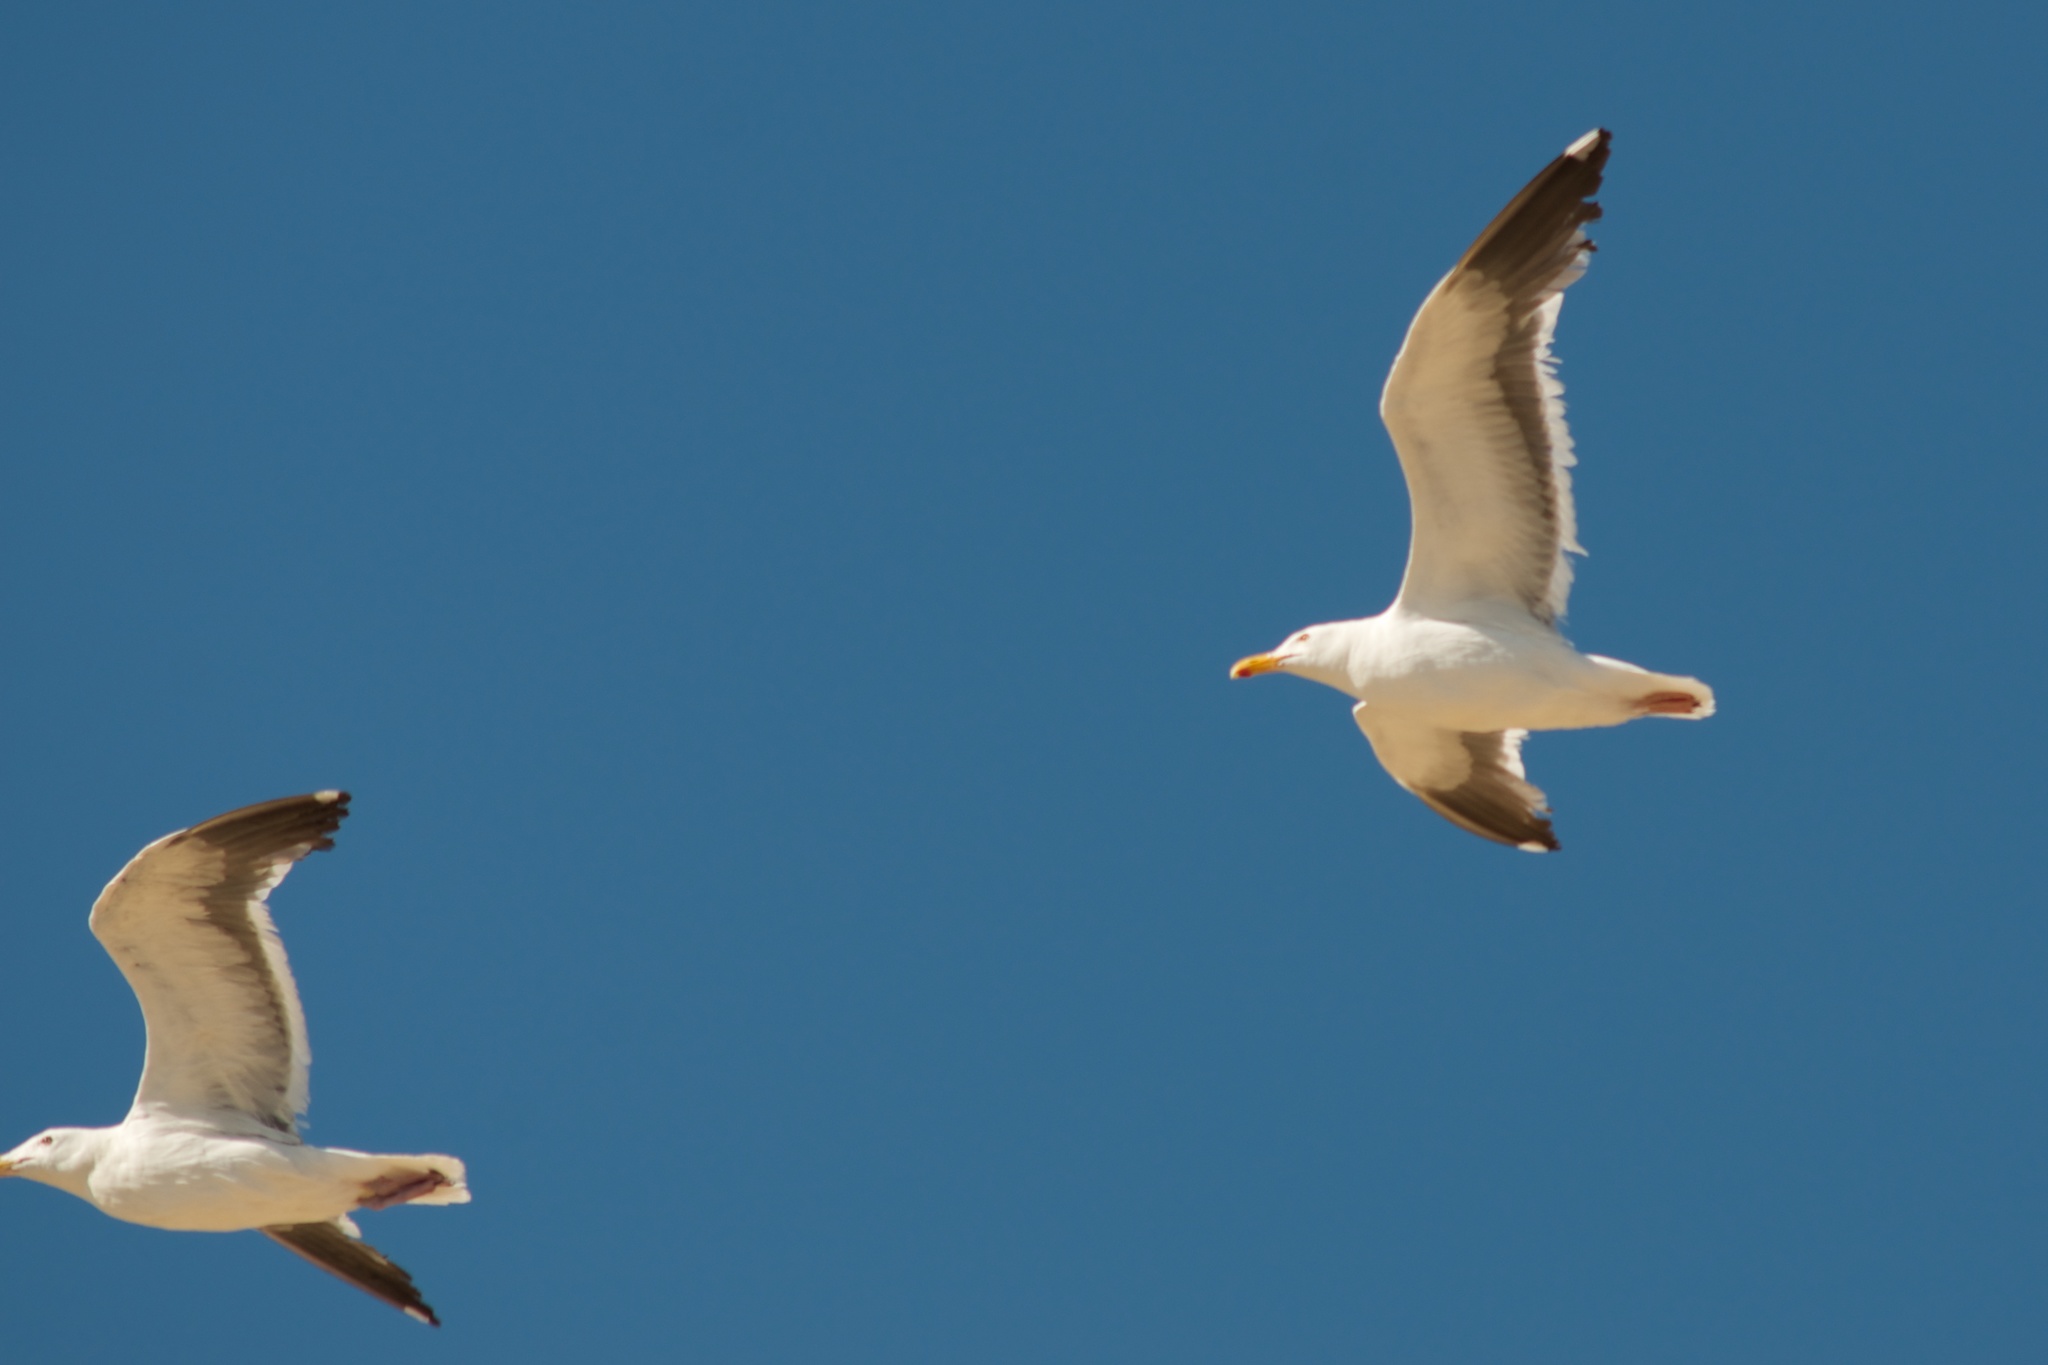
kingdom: Animalia
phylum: Chordata
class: Aves
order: Charadriiformes
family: Laridae
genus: Larus
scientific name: Larus occidentalis
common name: Western gull
